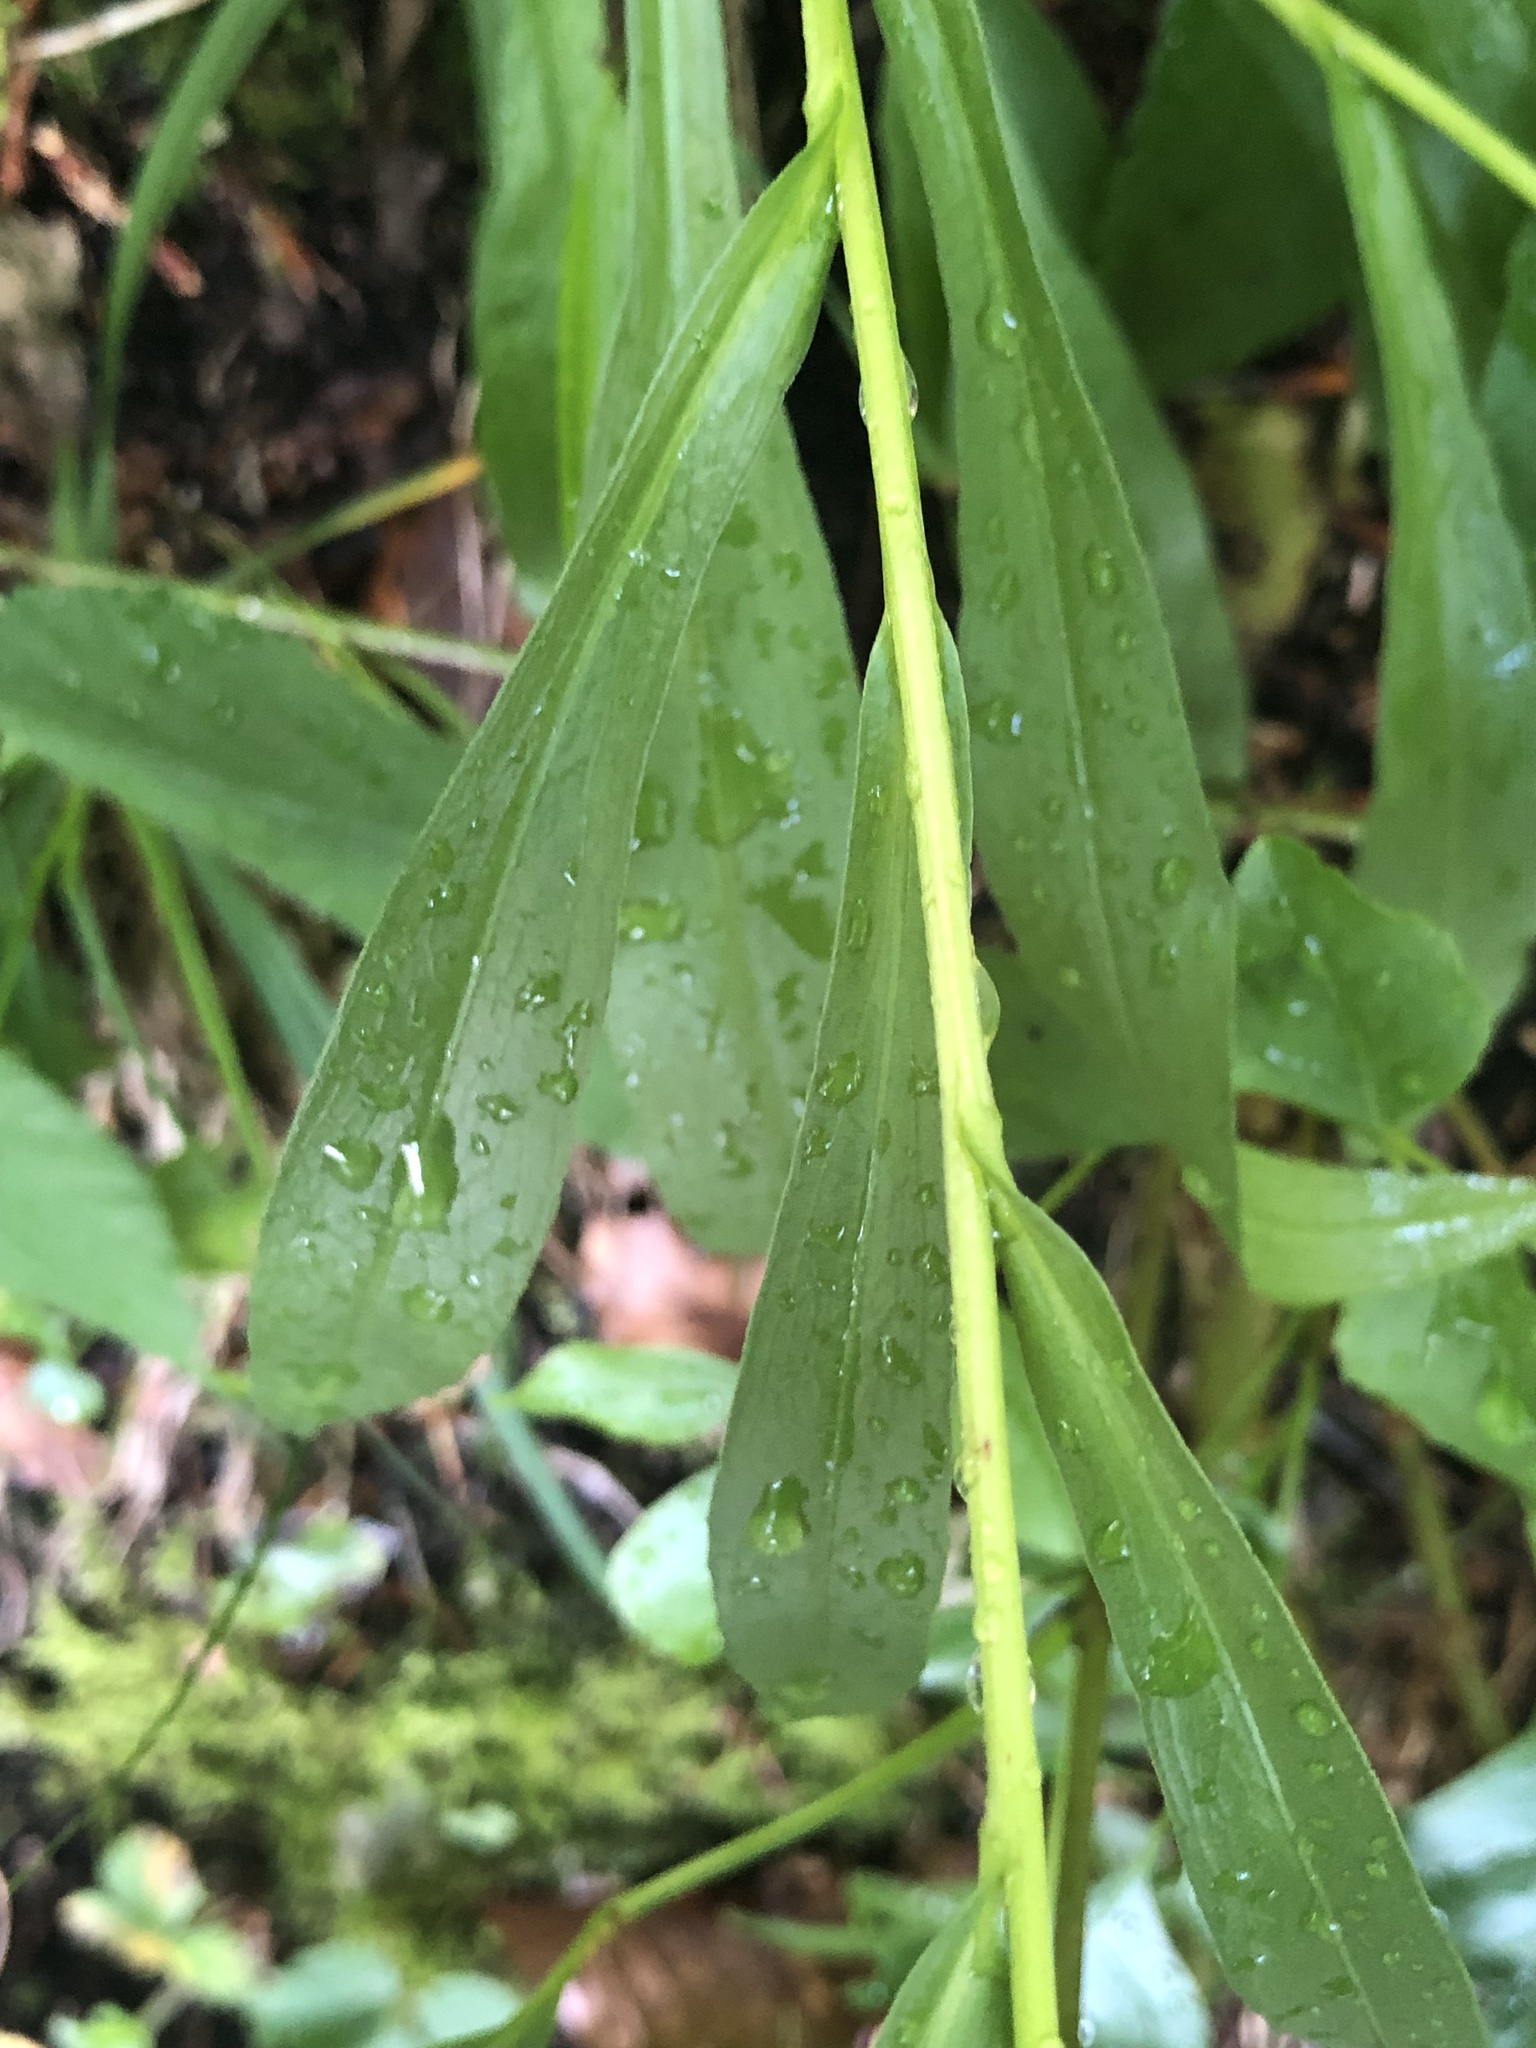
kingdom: Plantae
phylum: Tracheophyta
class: Magnoliopsida
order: Asterales
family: Asteraceae
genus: Buphthalmum
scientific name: Buphthalmum salicifolium
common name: Willow-leaved yellow-oxeye
